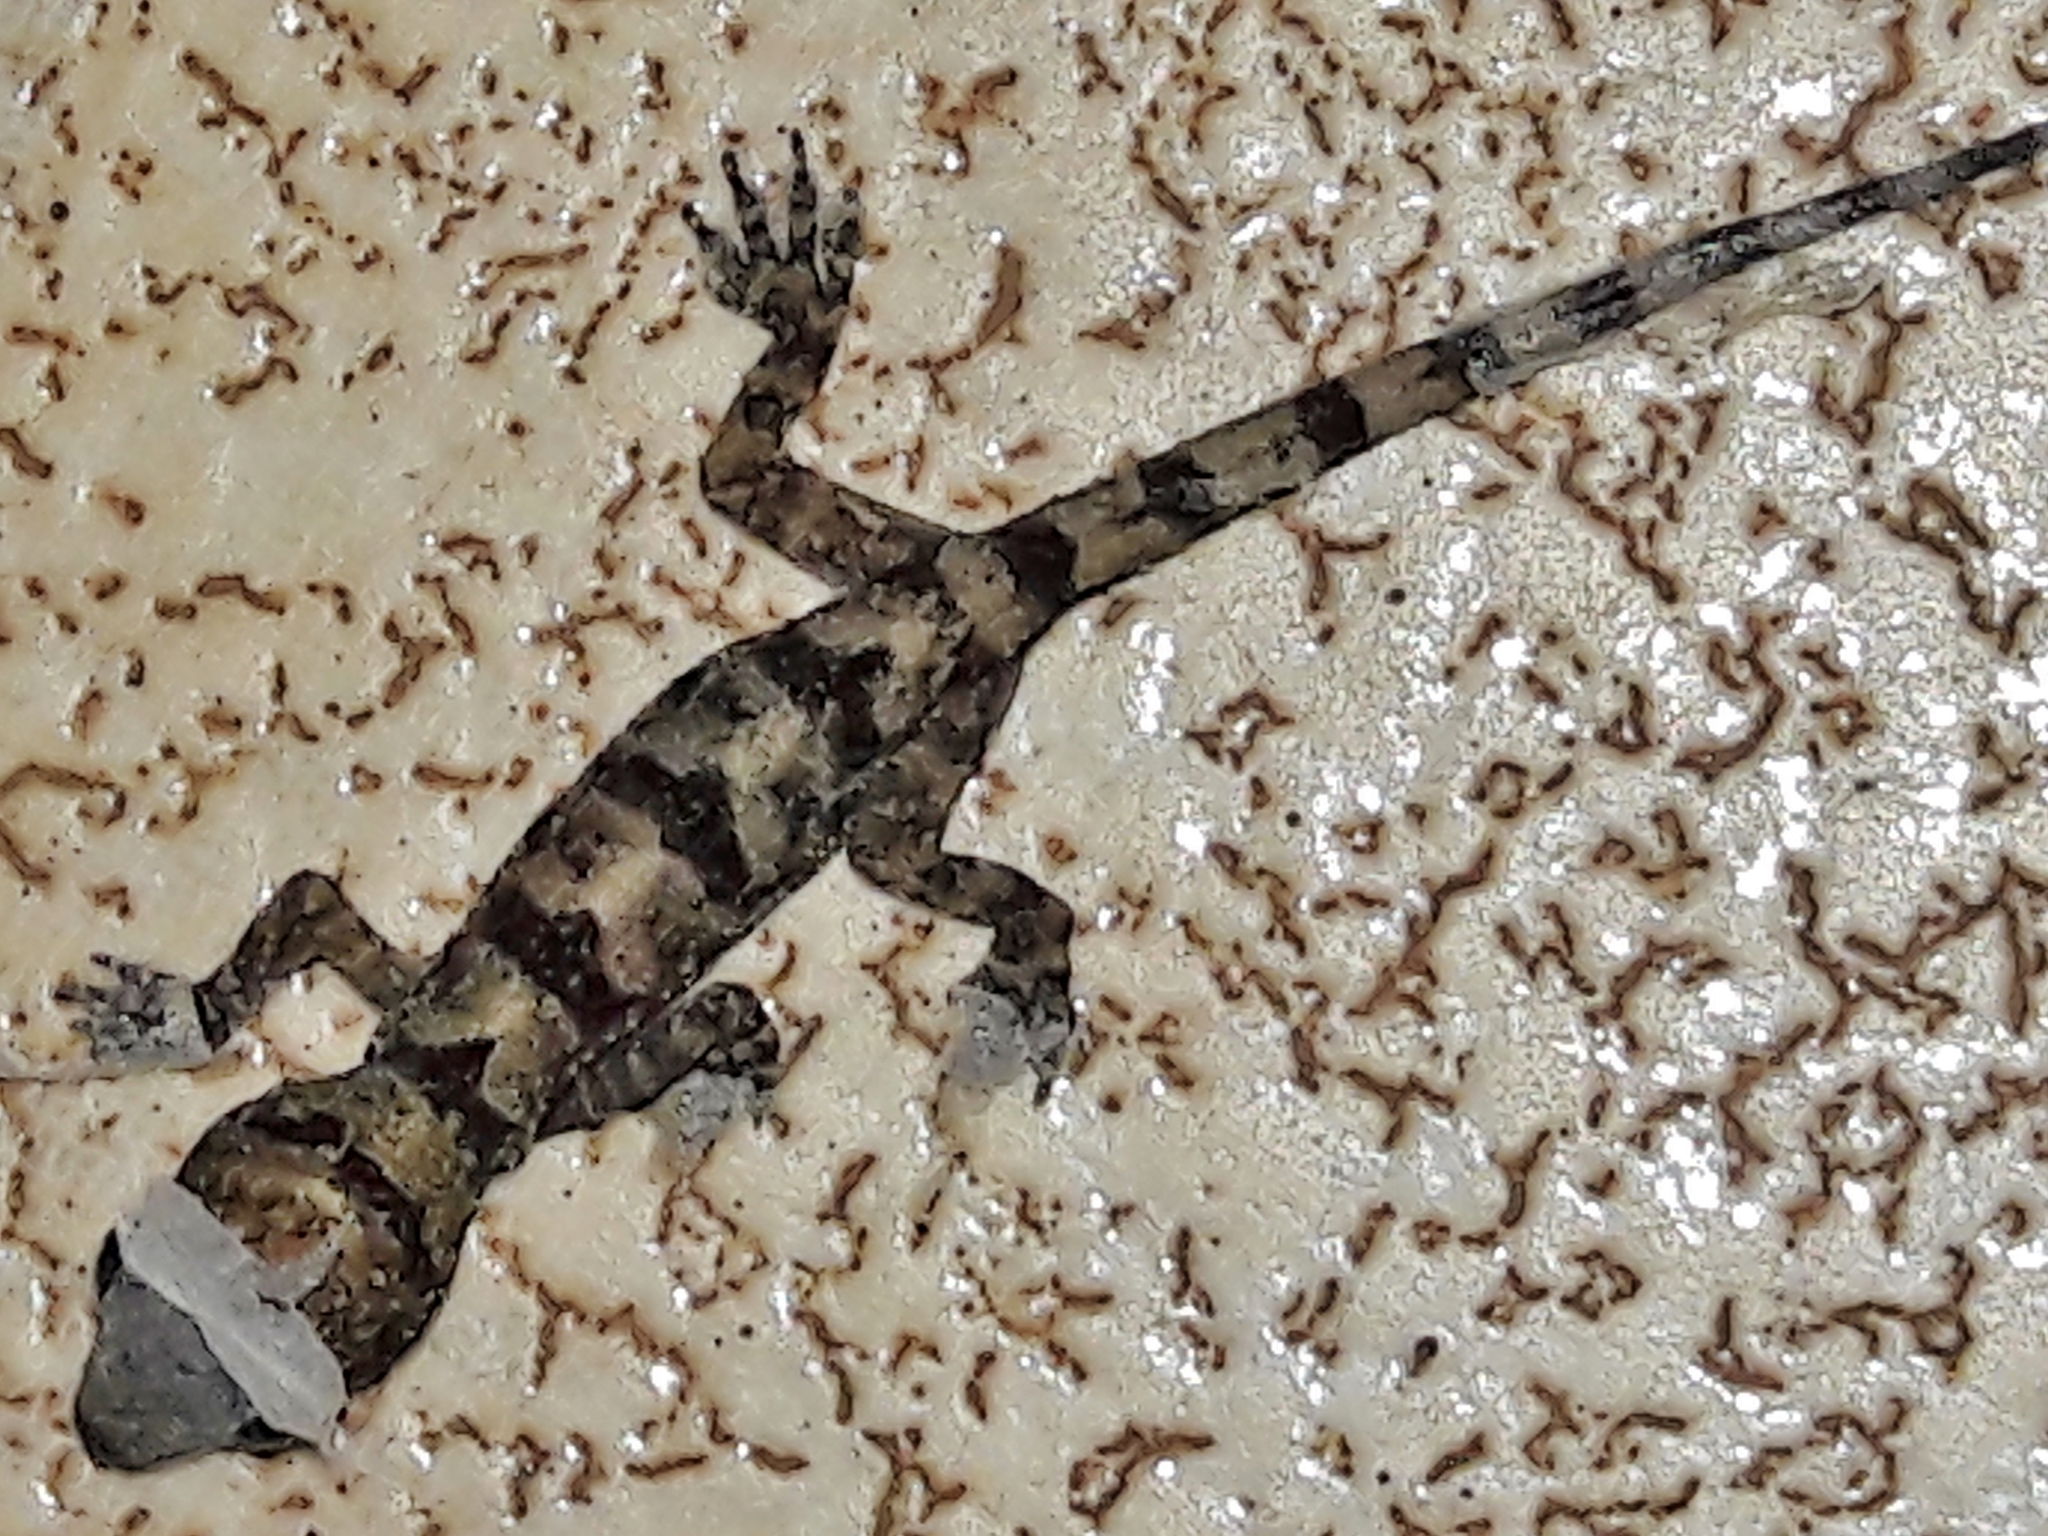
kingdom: Animalia
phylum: Chordata
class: Squamata
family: Gekkonidae
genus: Hemidactylus
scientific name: Hemidactylus mabouia
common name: House gecko
